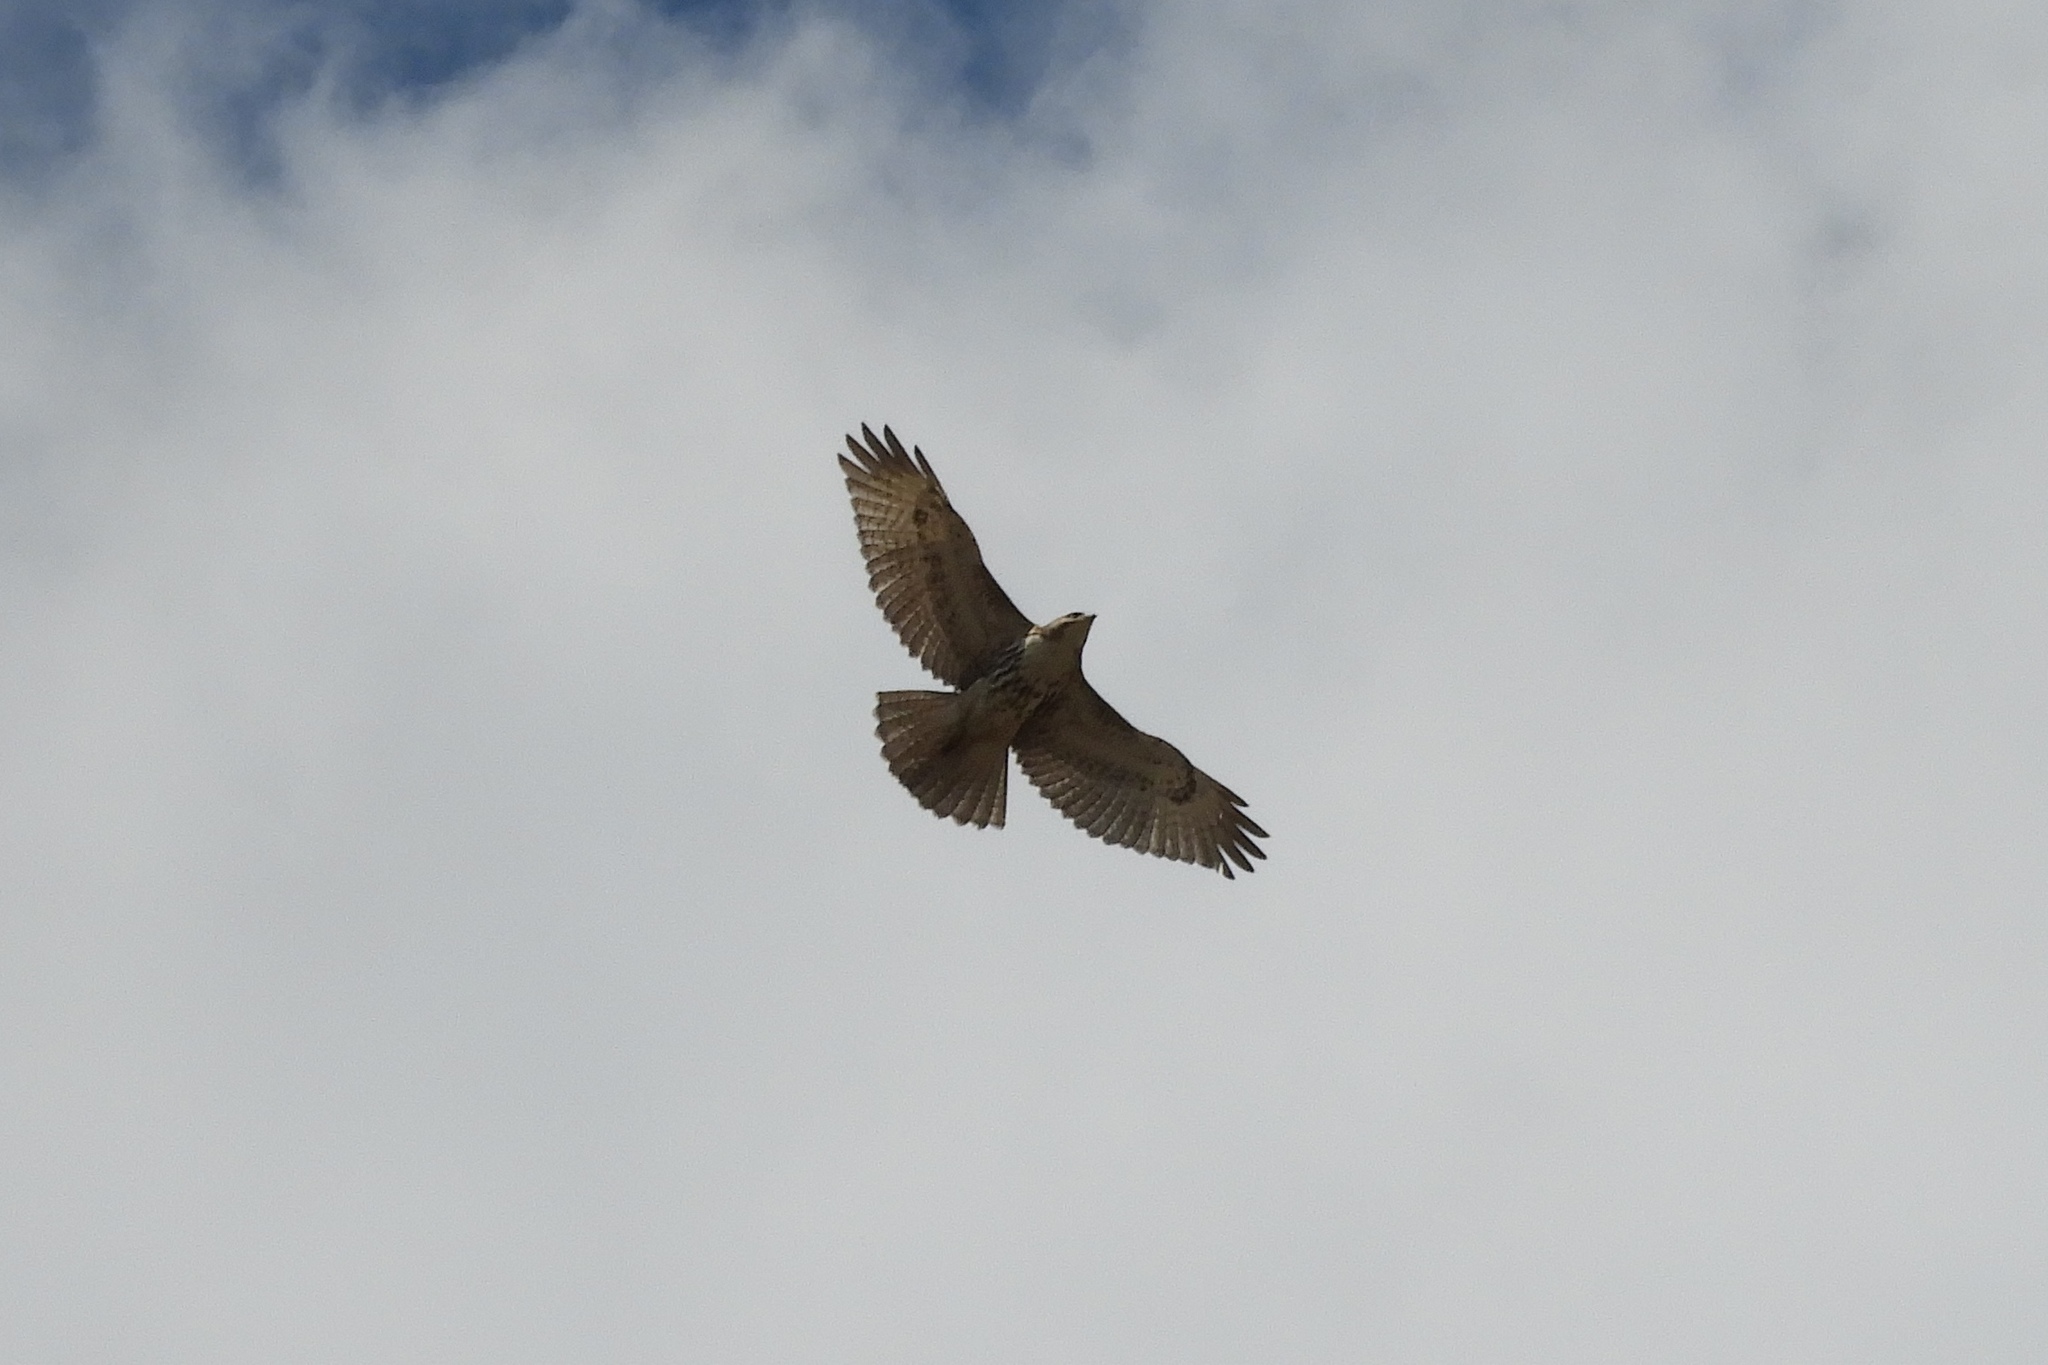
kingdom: Animalia
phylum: Chordata
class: Aves
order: Accipitriformes
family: Accipitridae
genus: Buteo
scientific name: Buteo jamaicensis
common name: Red-tailed hawk
